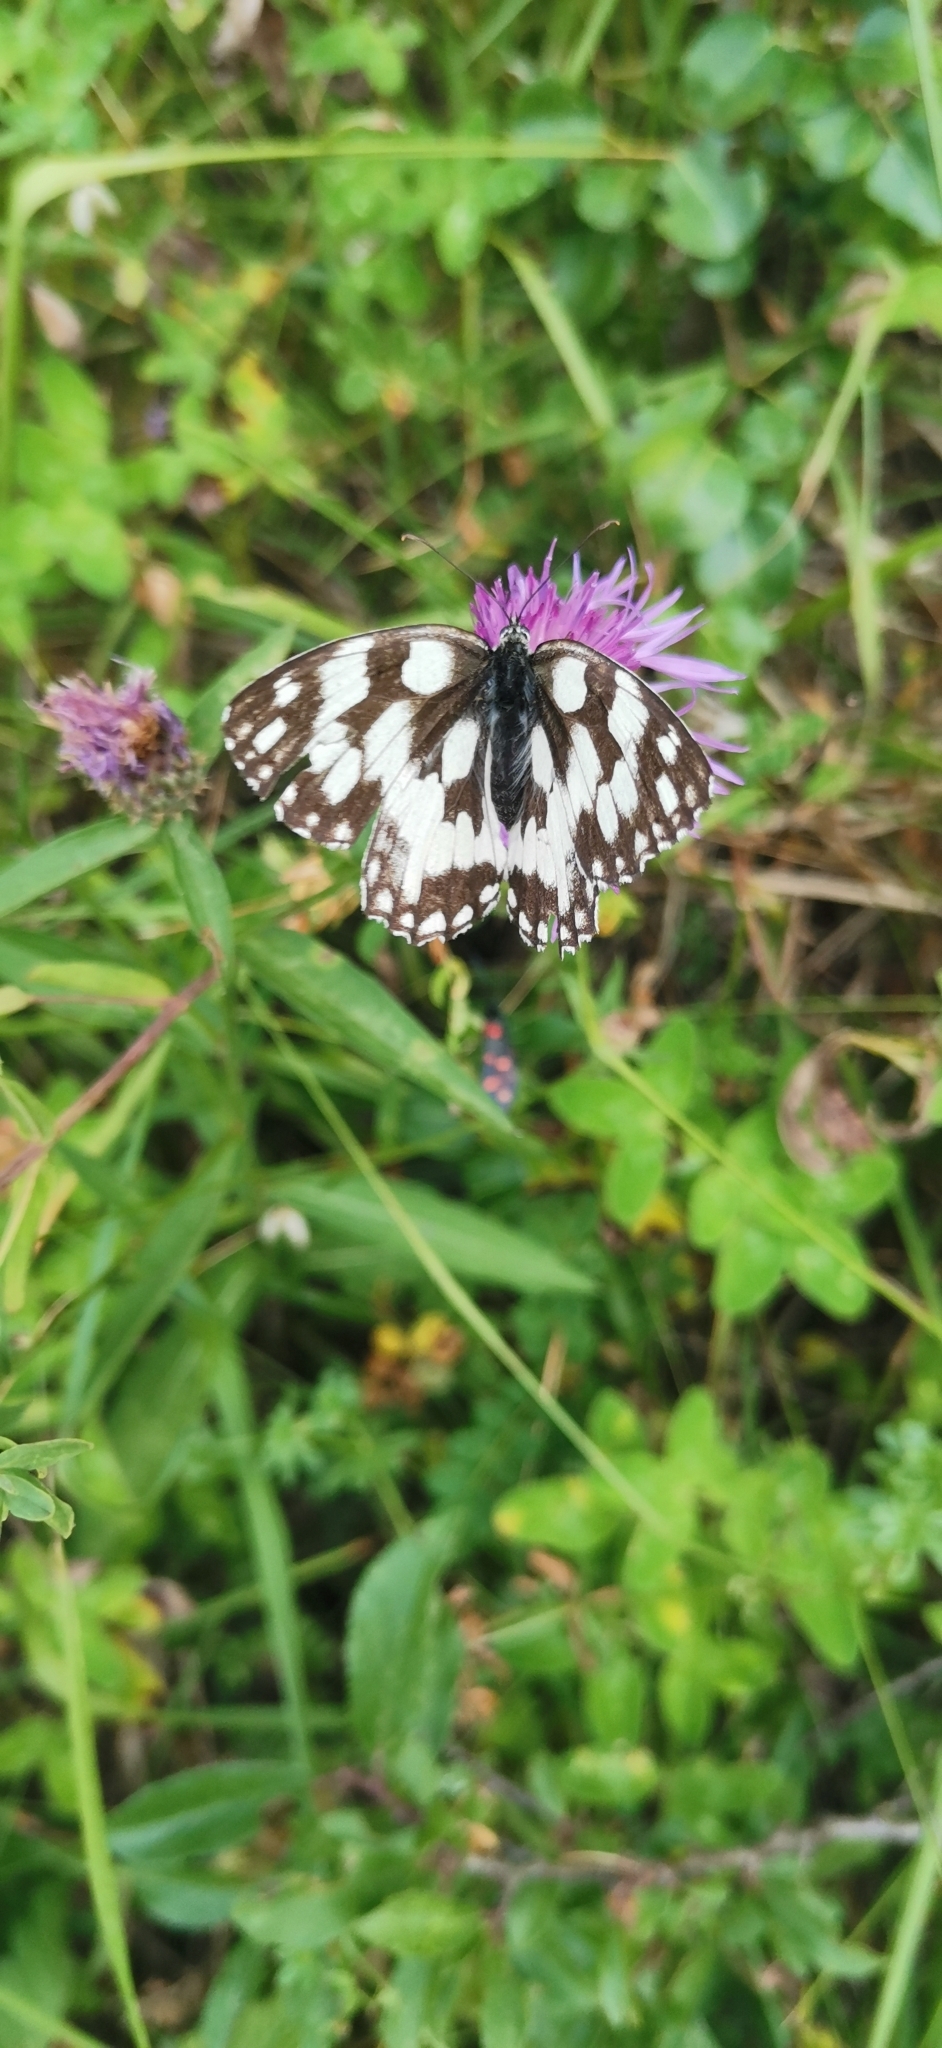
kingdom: Animalia
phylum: Arthropoda
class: Insecta
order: Lepidoptera
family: Nymphalidae
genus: Melanargia
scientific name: Melanargia galathea
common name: Marbled white
